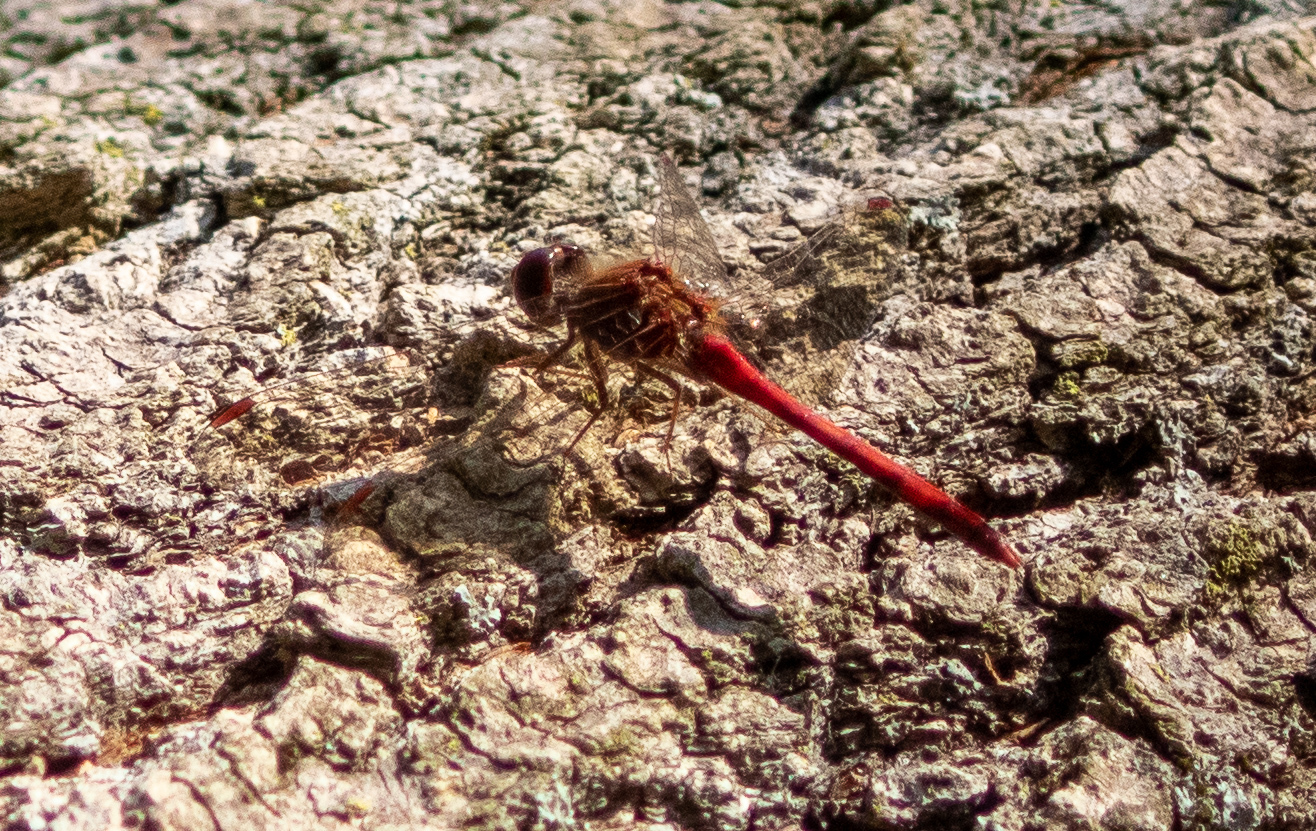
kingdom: Animalia
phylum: Arthropoda
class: Insecta
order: Odonata
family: Libellulidae
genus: Sympetrum
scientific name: Sympetrum vicinum
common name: Autumn meadowhawk
